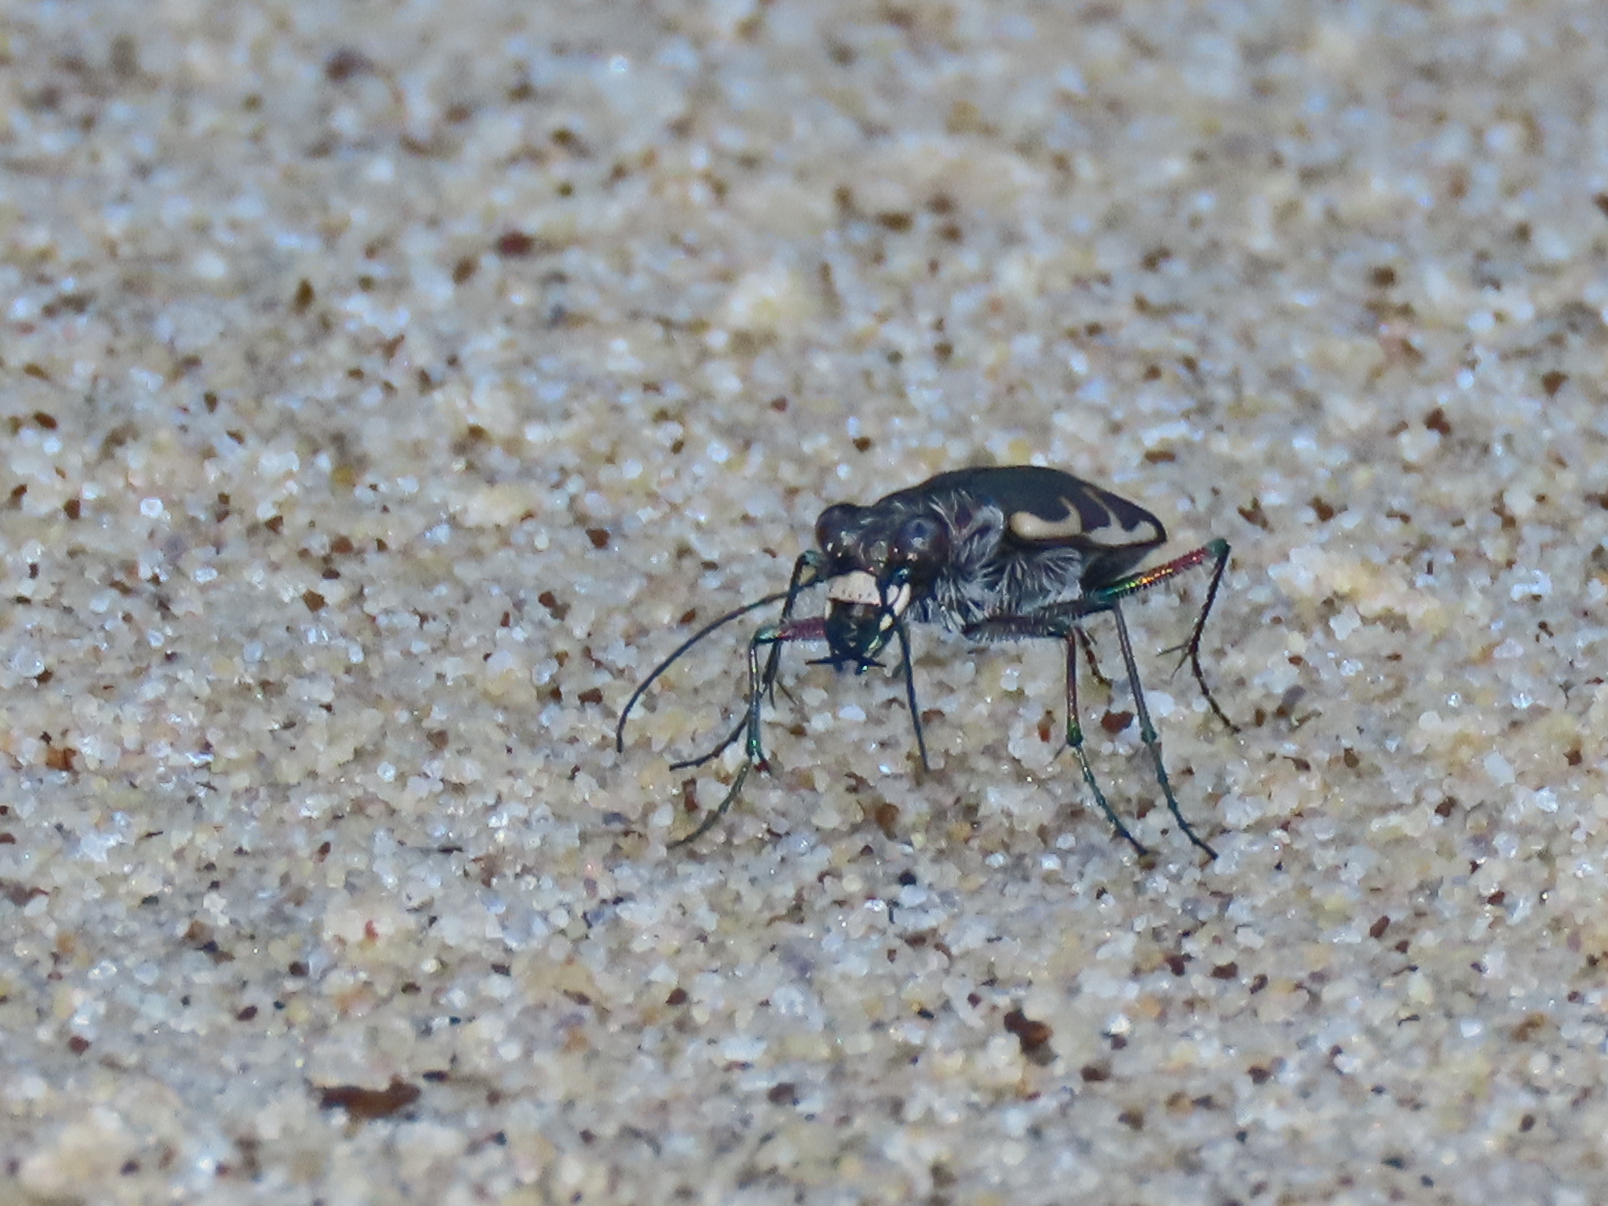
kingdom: Animalia
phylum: Arthropoda
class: Insecta
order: Coleoptera
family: Carabidae
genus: Cicindela
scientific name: Cicindela repanda
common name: Bronzed tiger beetle
